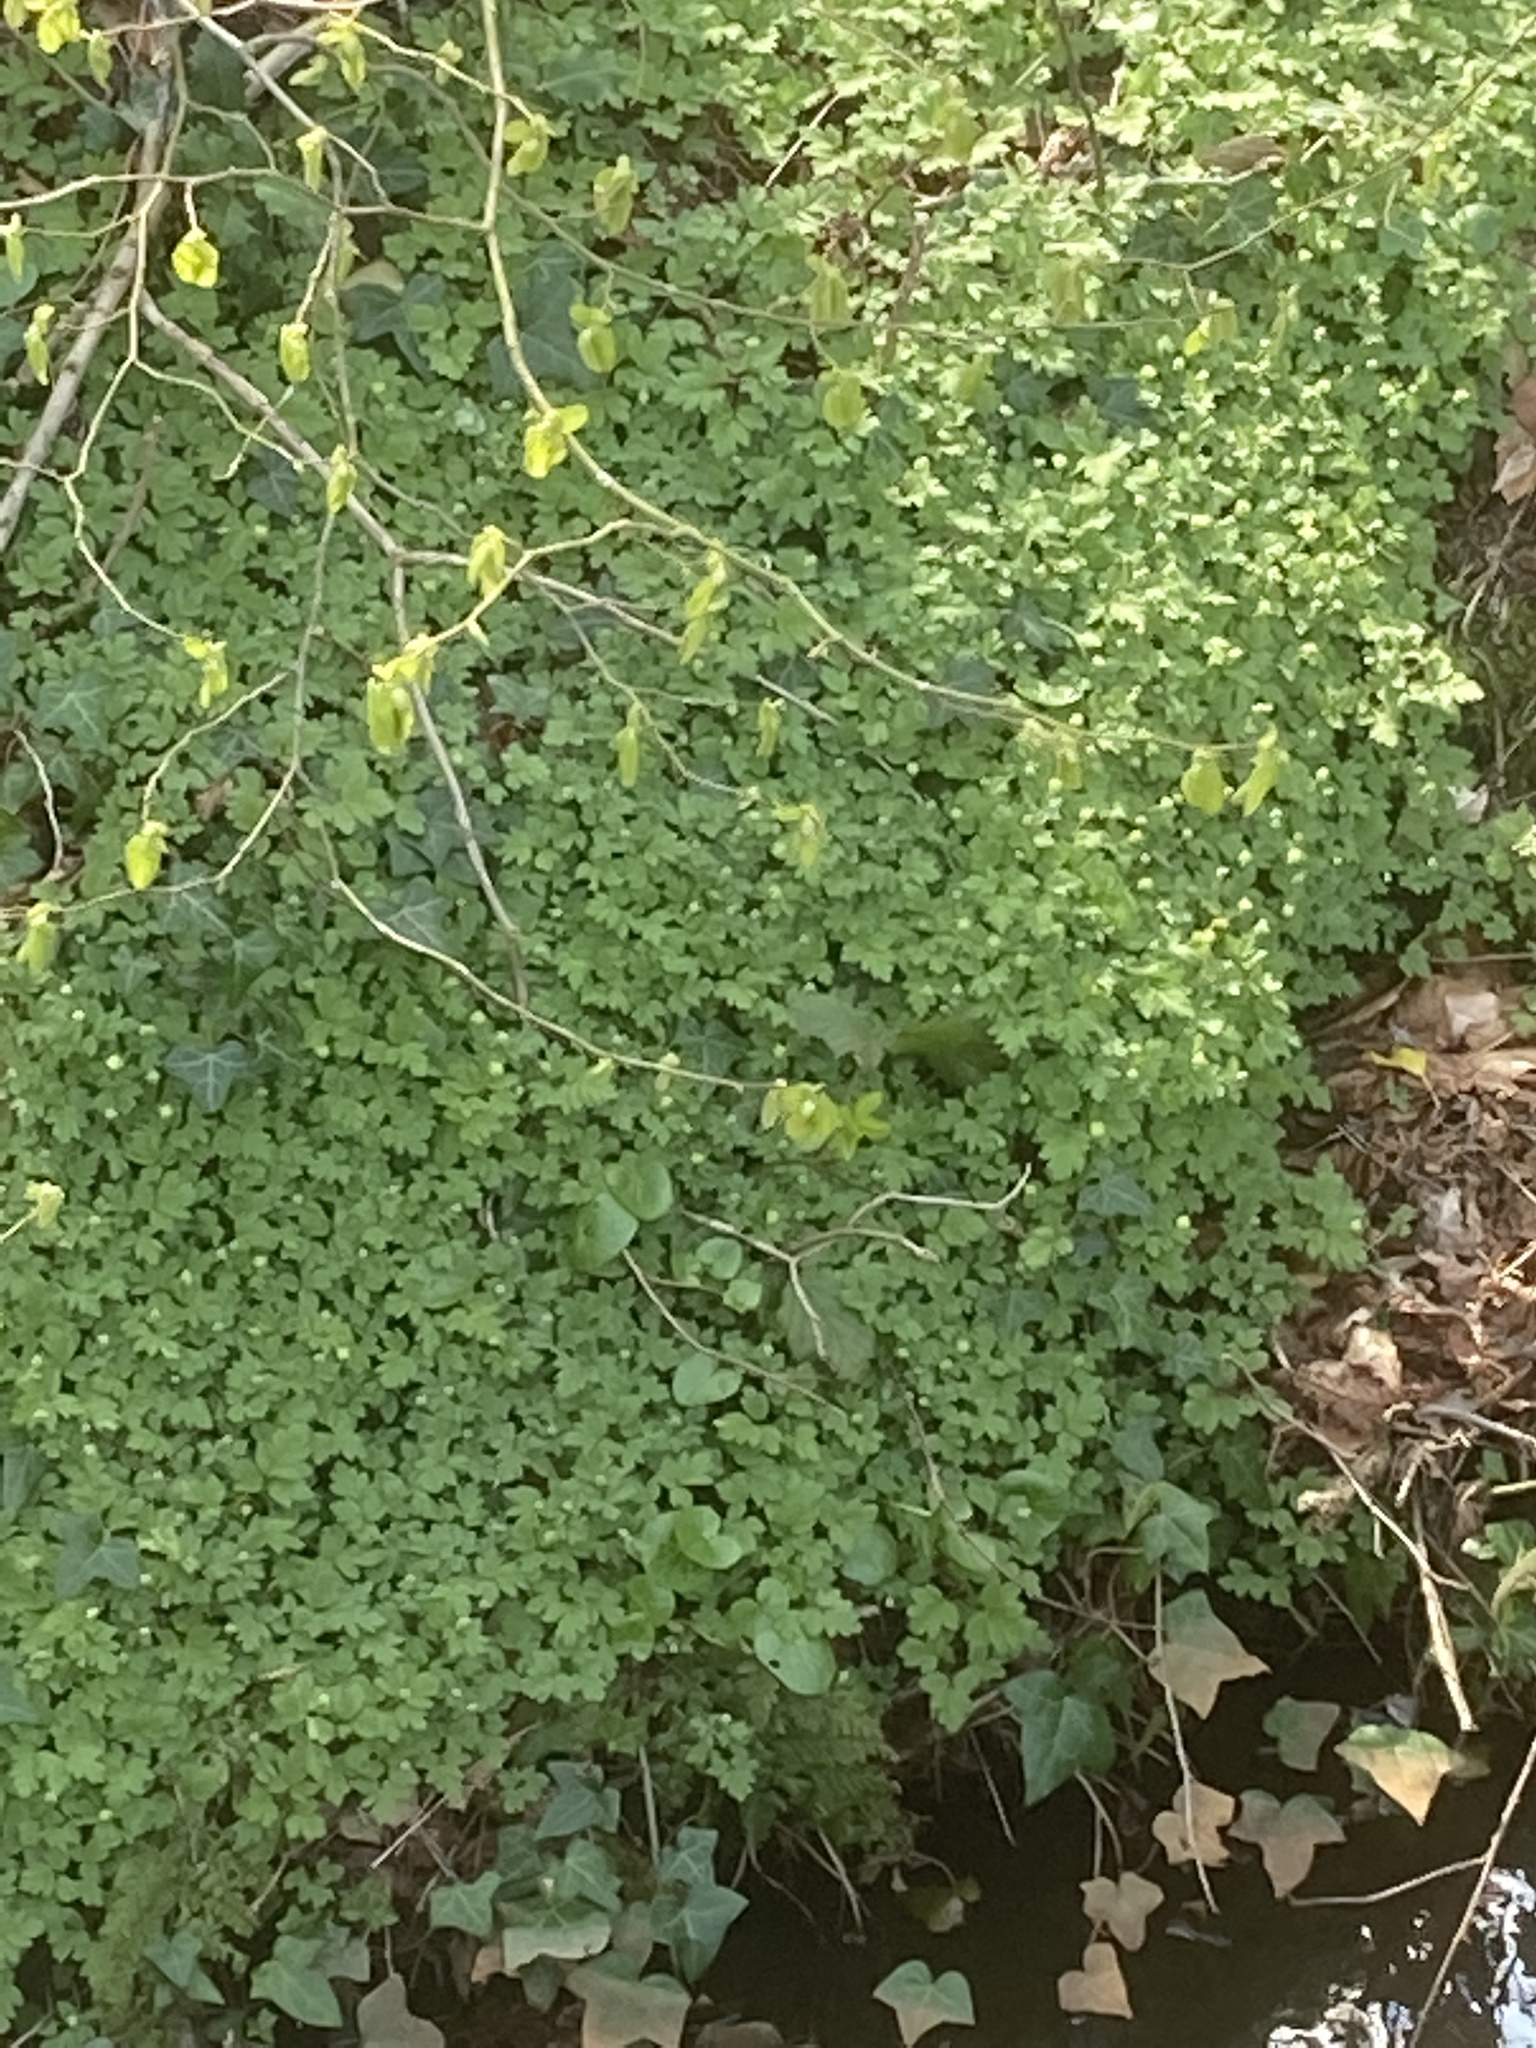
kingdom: Plantae
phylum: Tracheophyta
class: Magnoliopsida
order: Dipsacales
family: Viburnaceae
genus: Adoxa
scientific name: Adoxa moschatellina
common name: Moschatel
